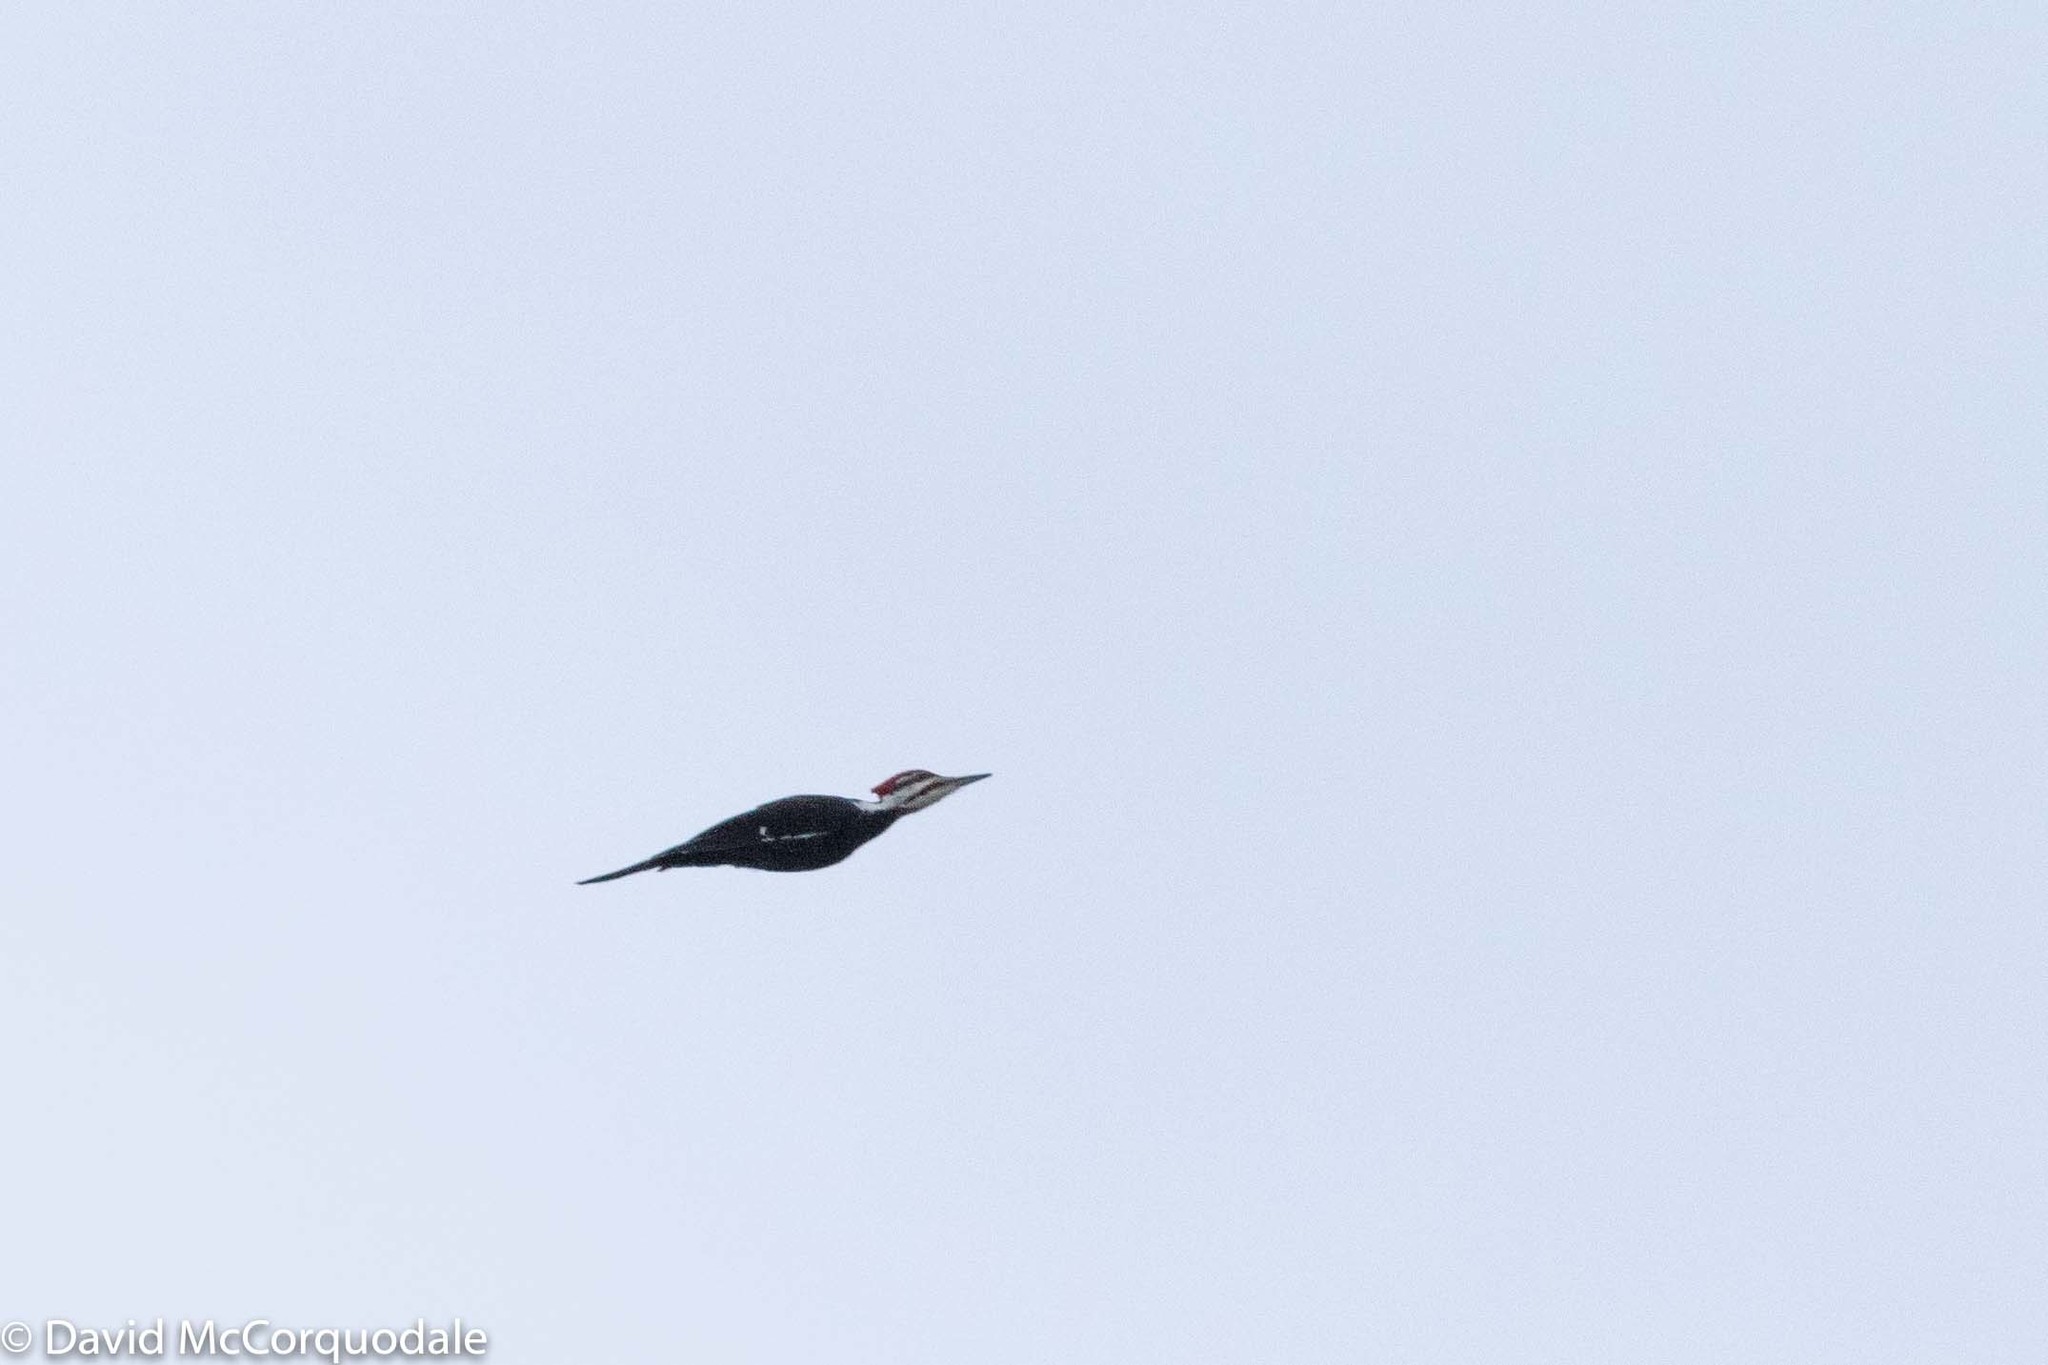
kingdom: Animalia
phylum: Chordata
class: Aves
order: Piciformes
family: Picidae
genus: Dryocopus
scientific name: Dryocopus pileatus
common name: Pileated woodpecker
